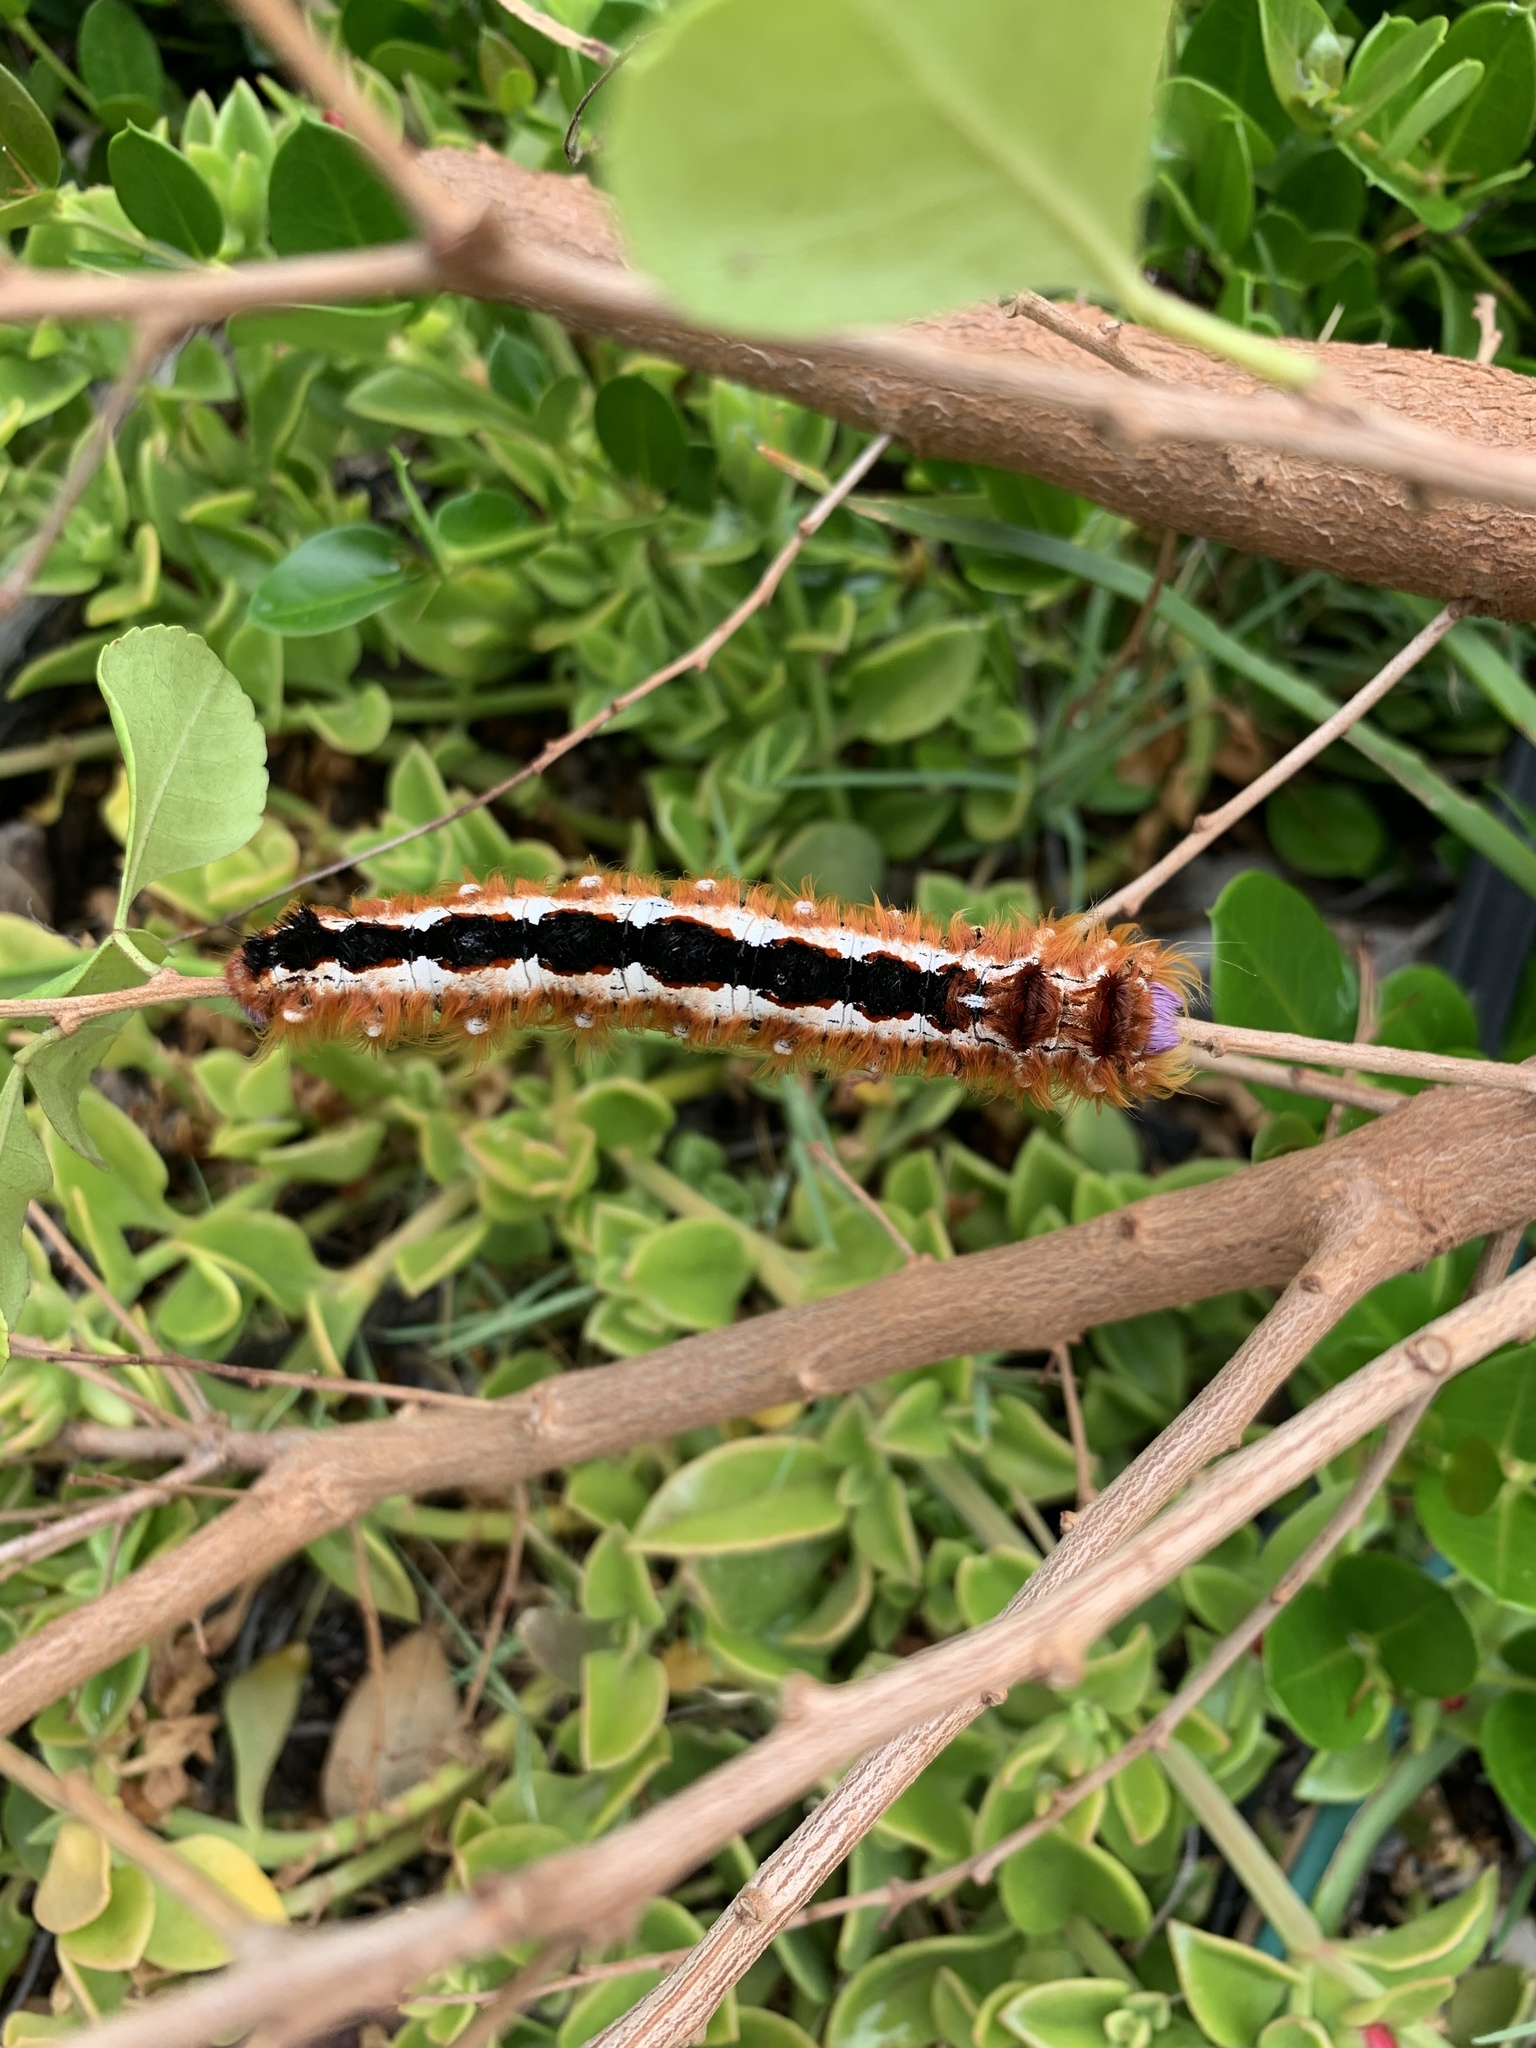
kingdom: Animalia
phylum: Arthropoda
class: Insecta
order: Lepidoptera
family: Lasiocampidae
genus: Eutricha
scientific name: Eutricha capensis
